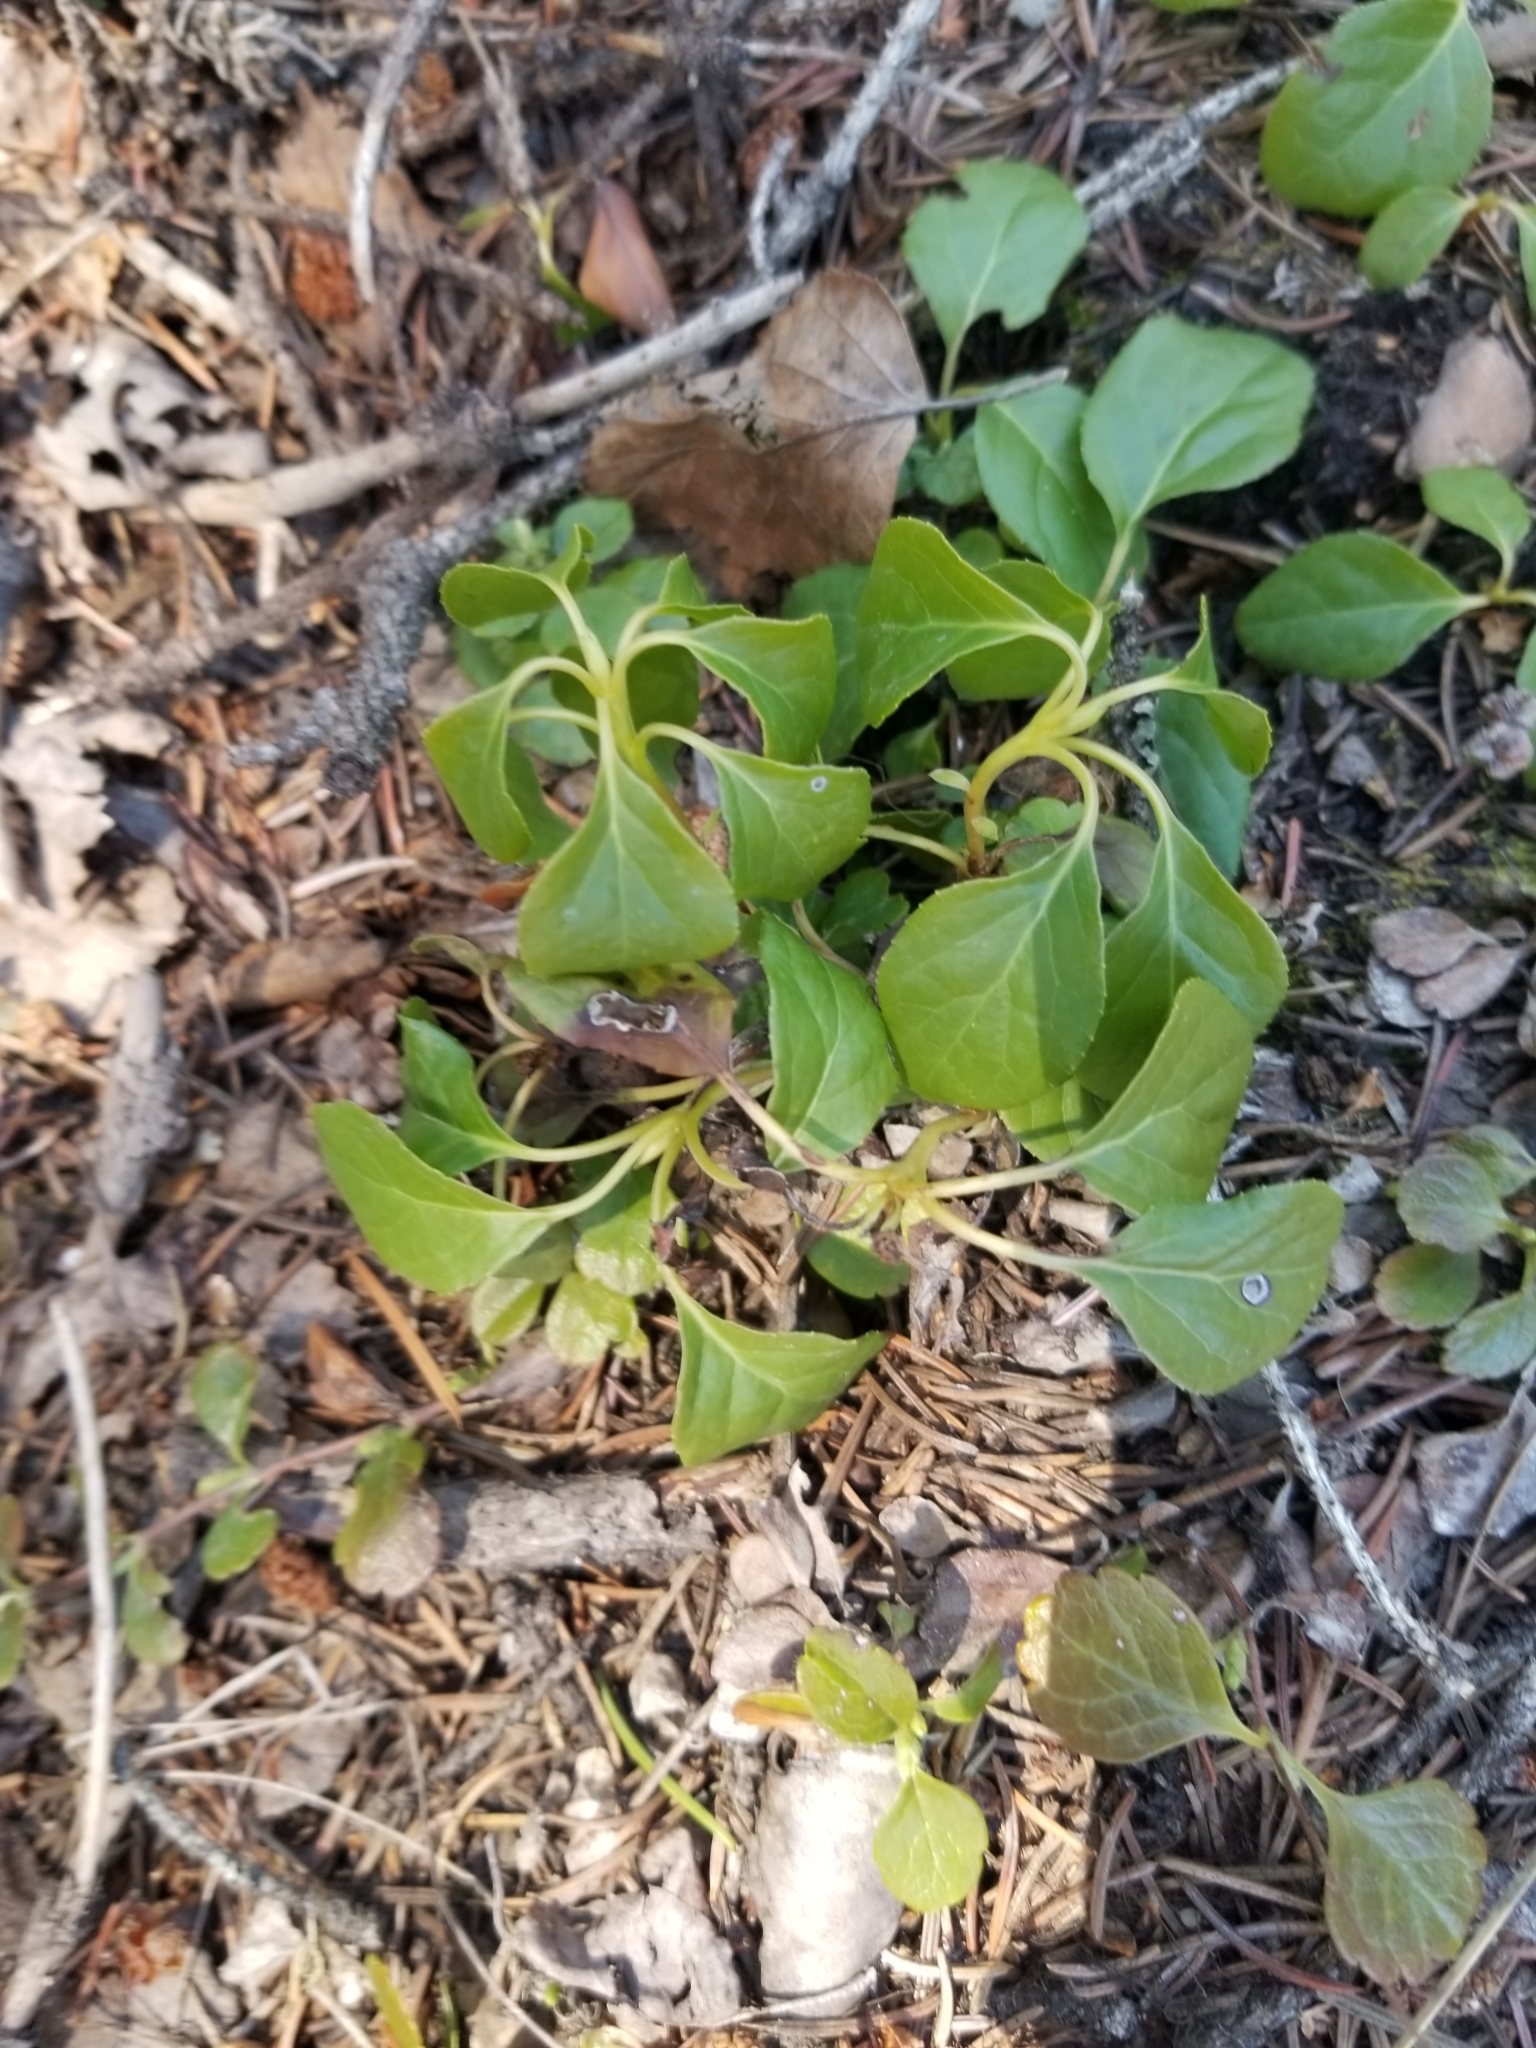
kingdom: Plantae
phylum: Tracheophyta
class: Magnoliopsida
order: Ericales
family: Ericaceae
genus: Orthilia
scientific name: Orthilia secunda
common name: One-sided orthilia
